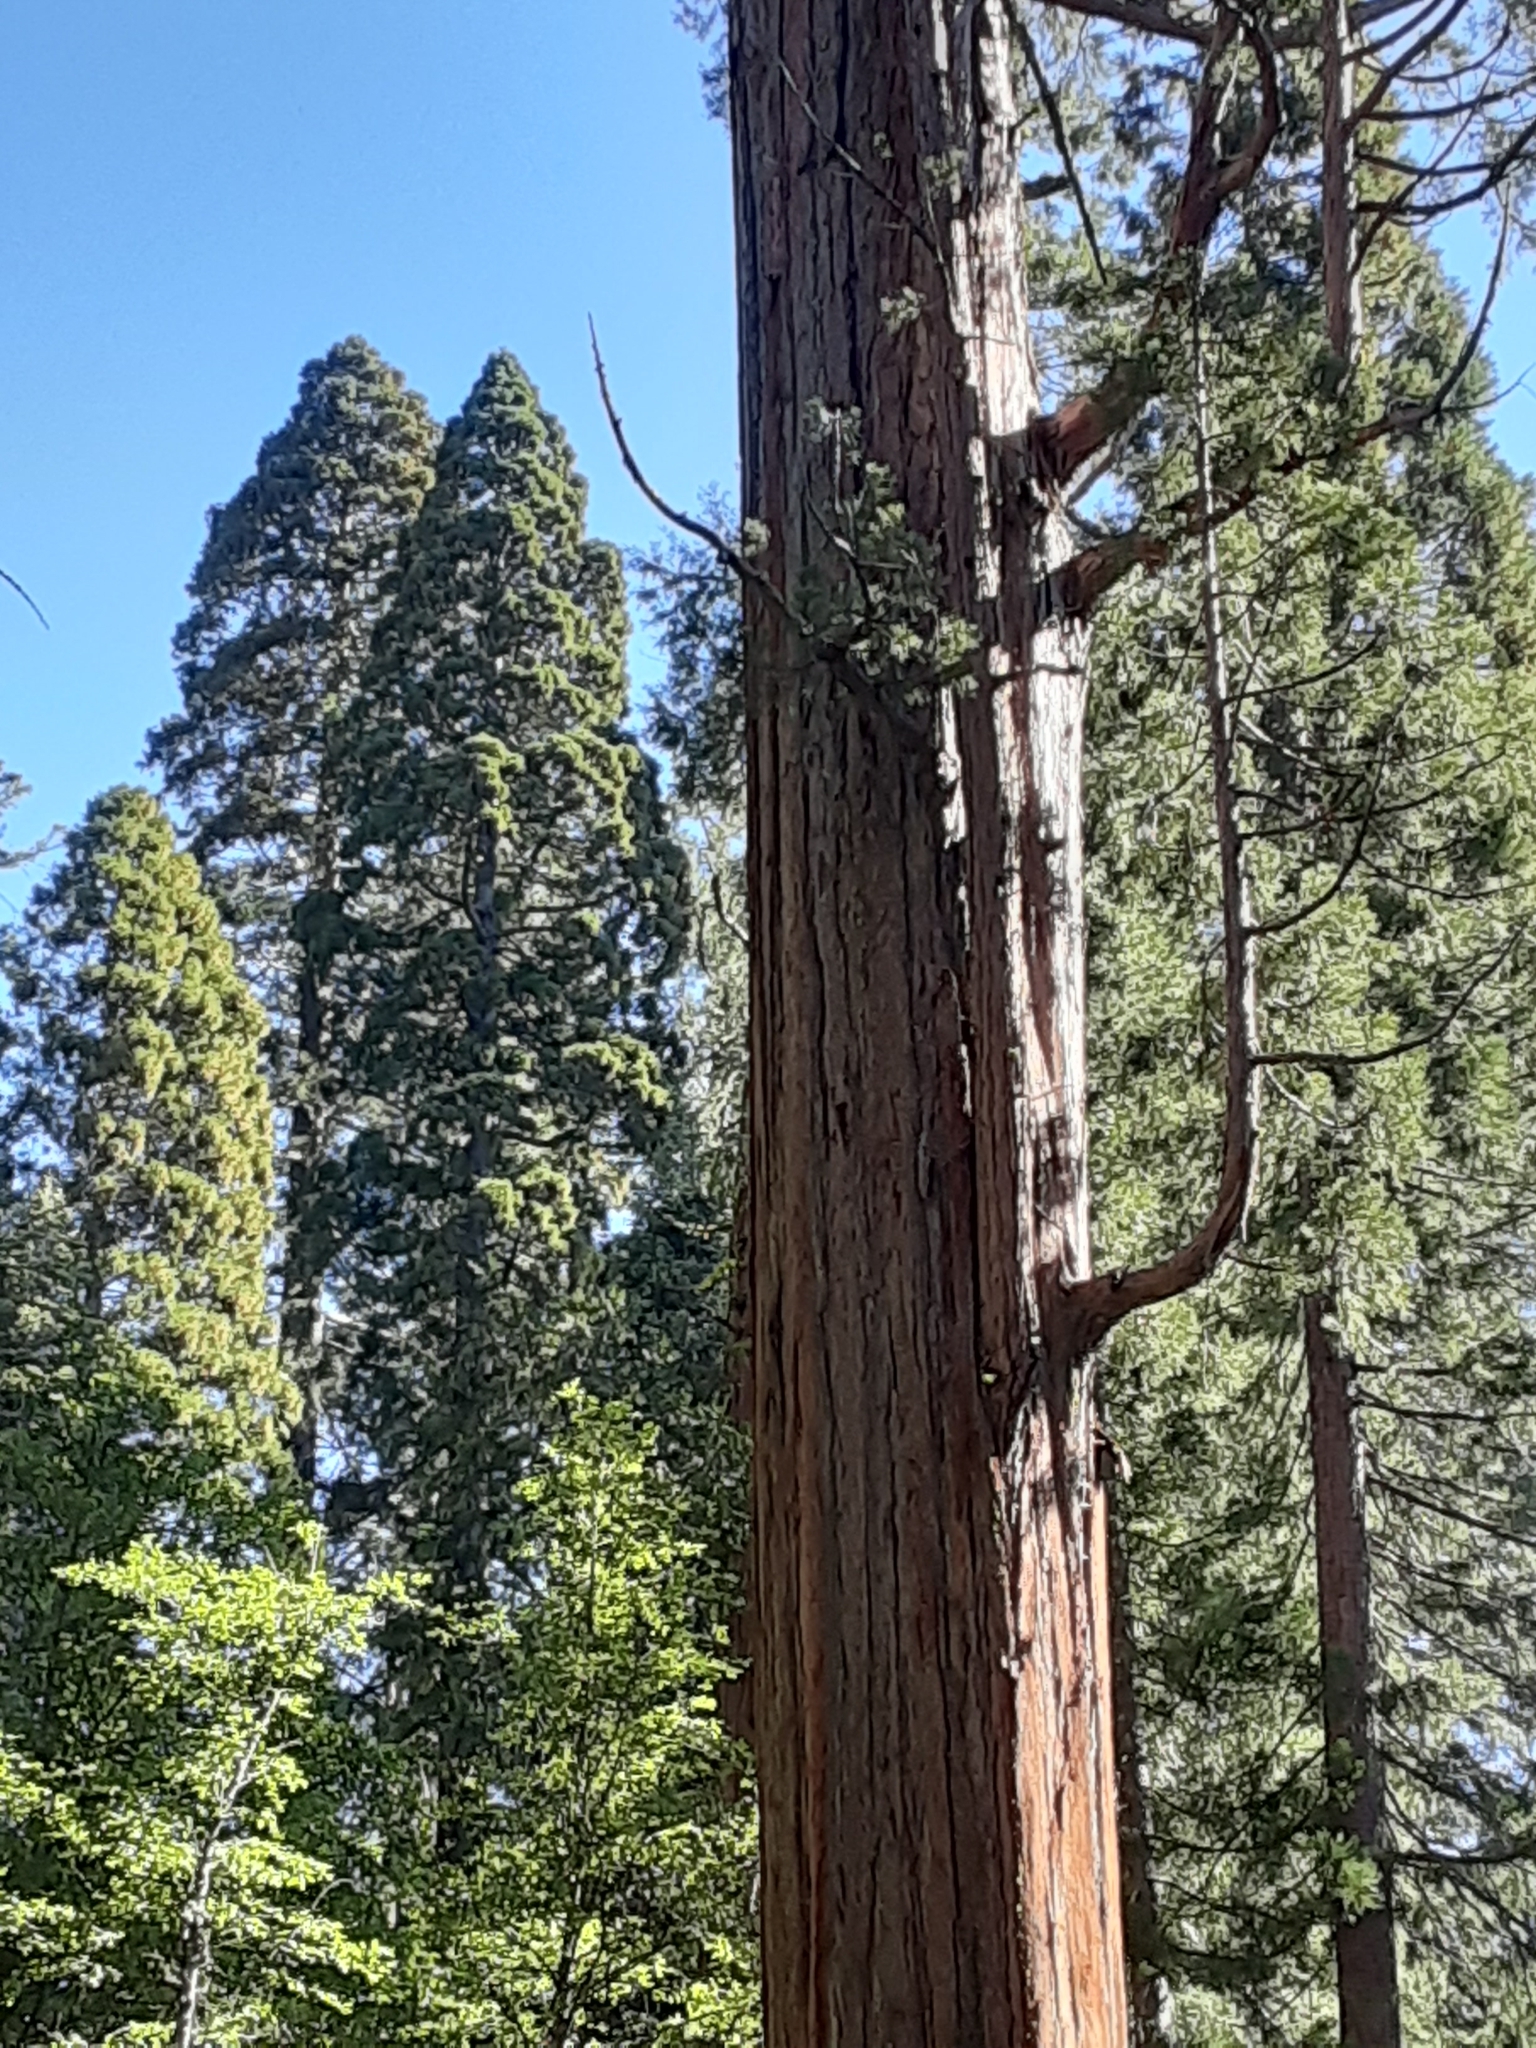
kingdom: Plantae
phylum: Tracheophyta
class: Pinopsida
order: Pinales
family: Cupressaceae
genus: Sequoiadendron
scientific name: Sequoiadendron giganteum
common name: Wellingtonia
